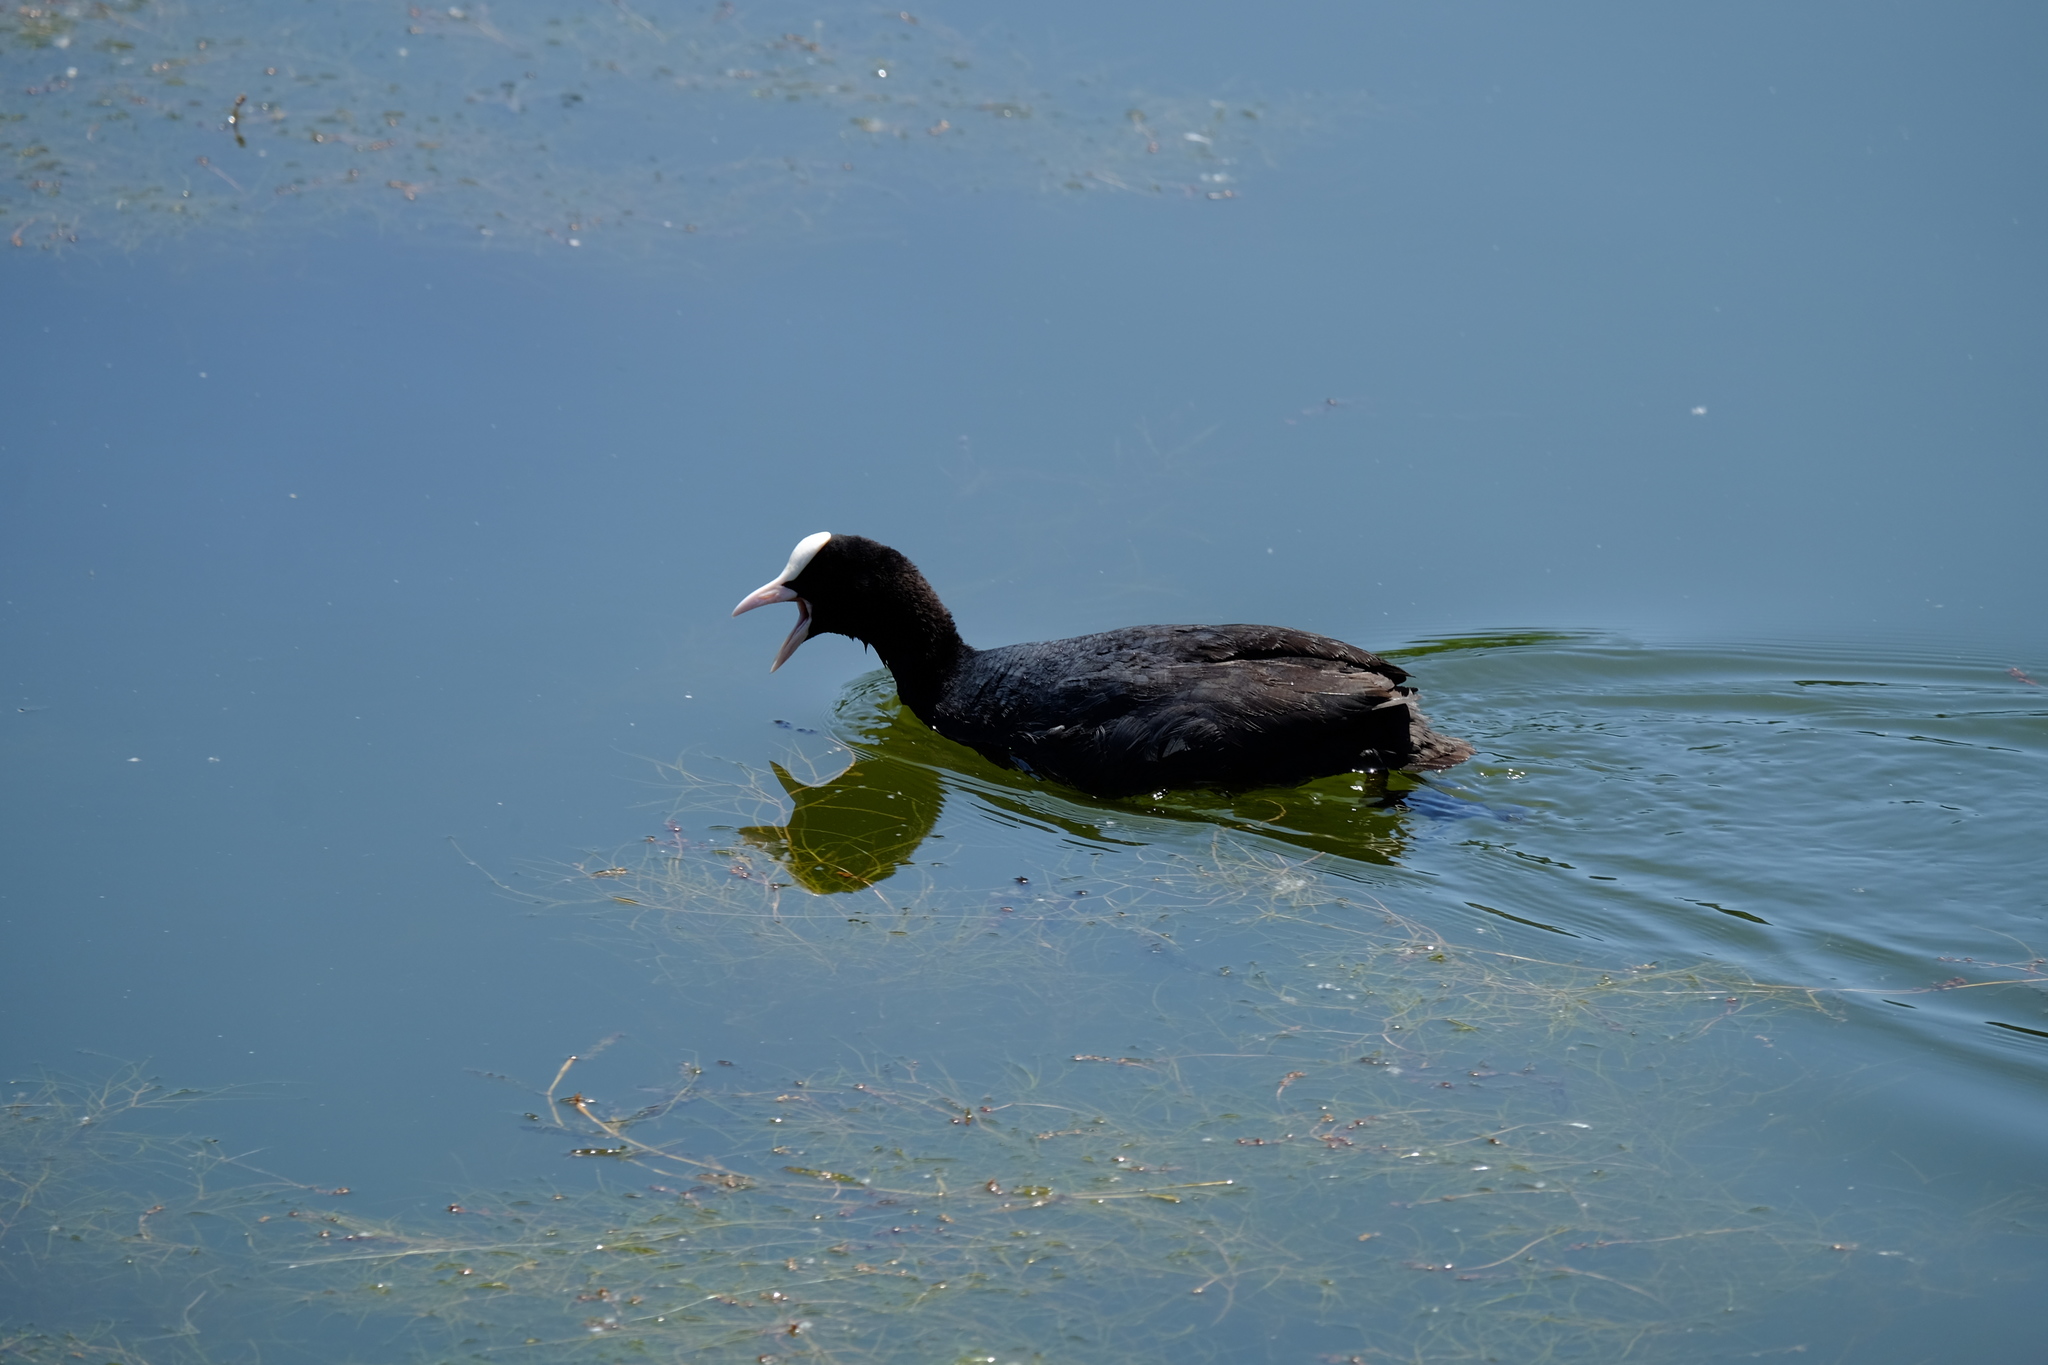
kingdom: Animalia
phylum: Chordata
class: Aves
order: Gruiformes
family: Rallidae
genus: Fulica
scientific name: Fulica atra
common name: Eurasian coot
